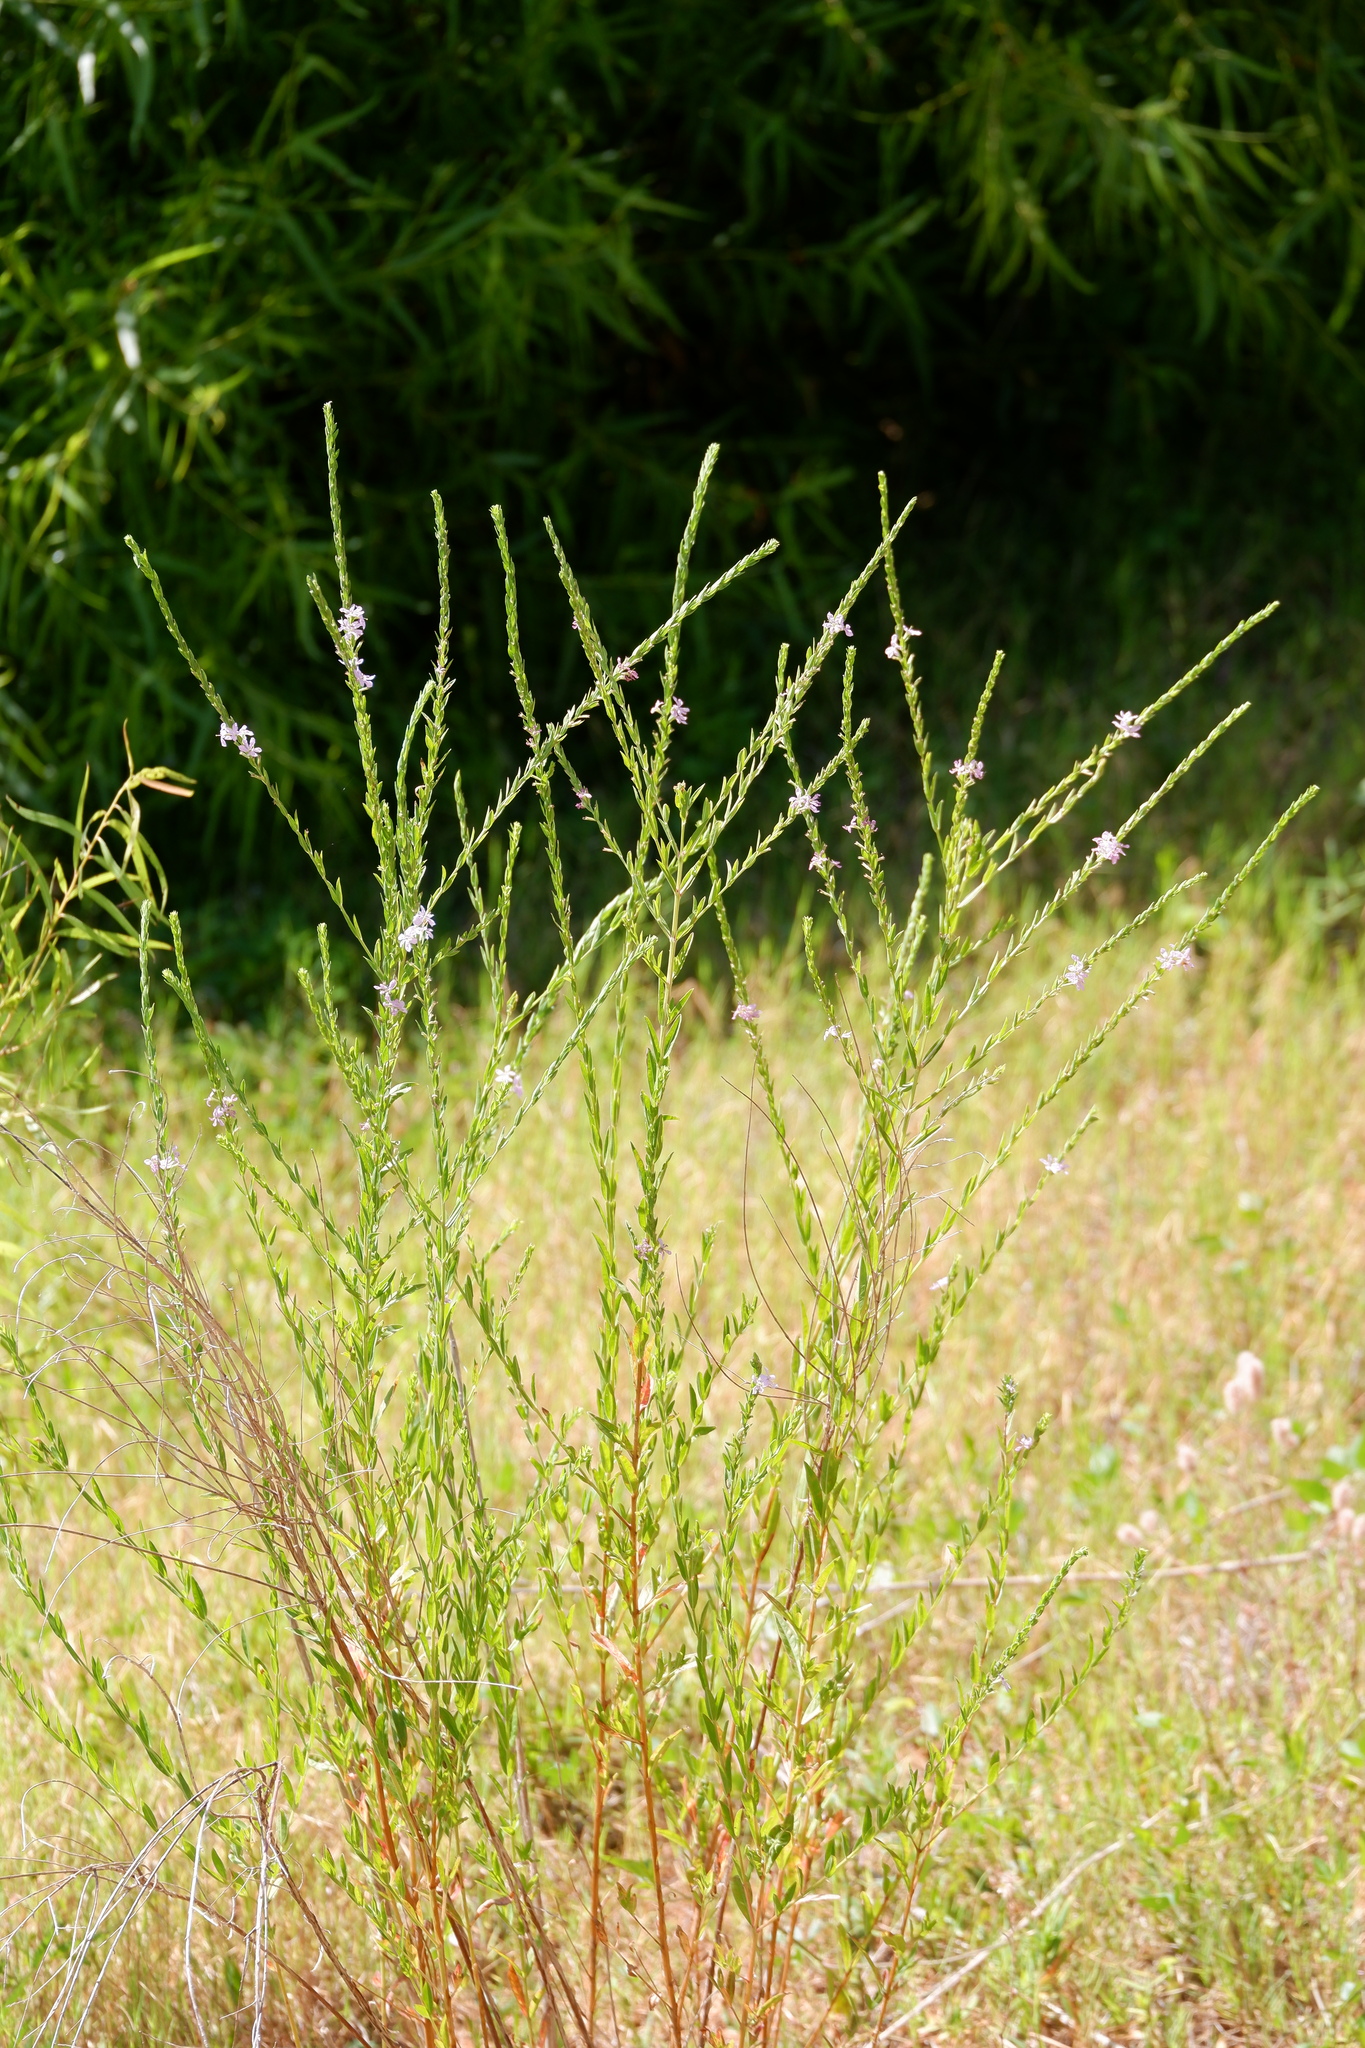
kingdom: Plantae
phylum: Tracheophyta
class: Magnoliopsida
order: Myrtales
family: Lythraceae
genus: Lythrum
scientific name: Lythrum alatum
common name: Winged loosestrife
